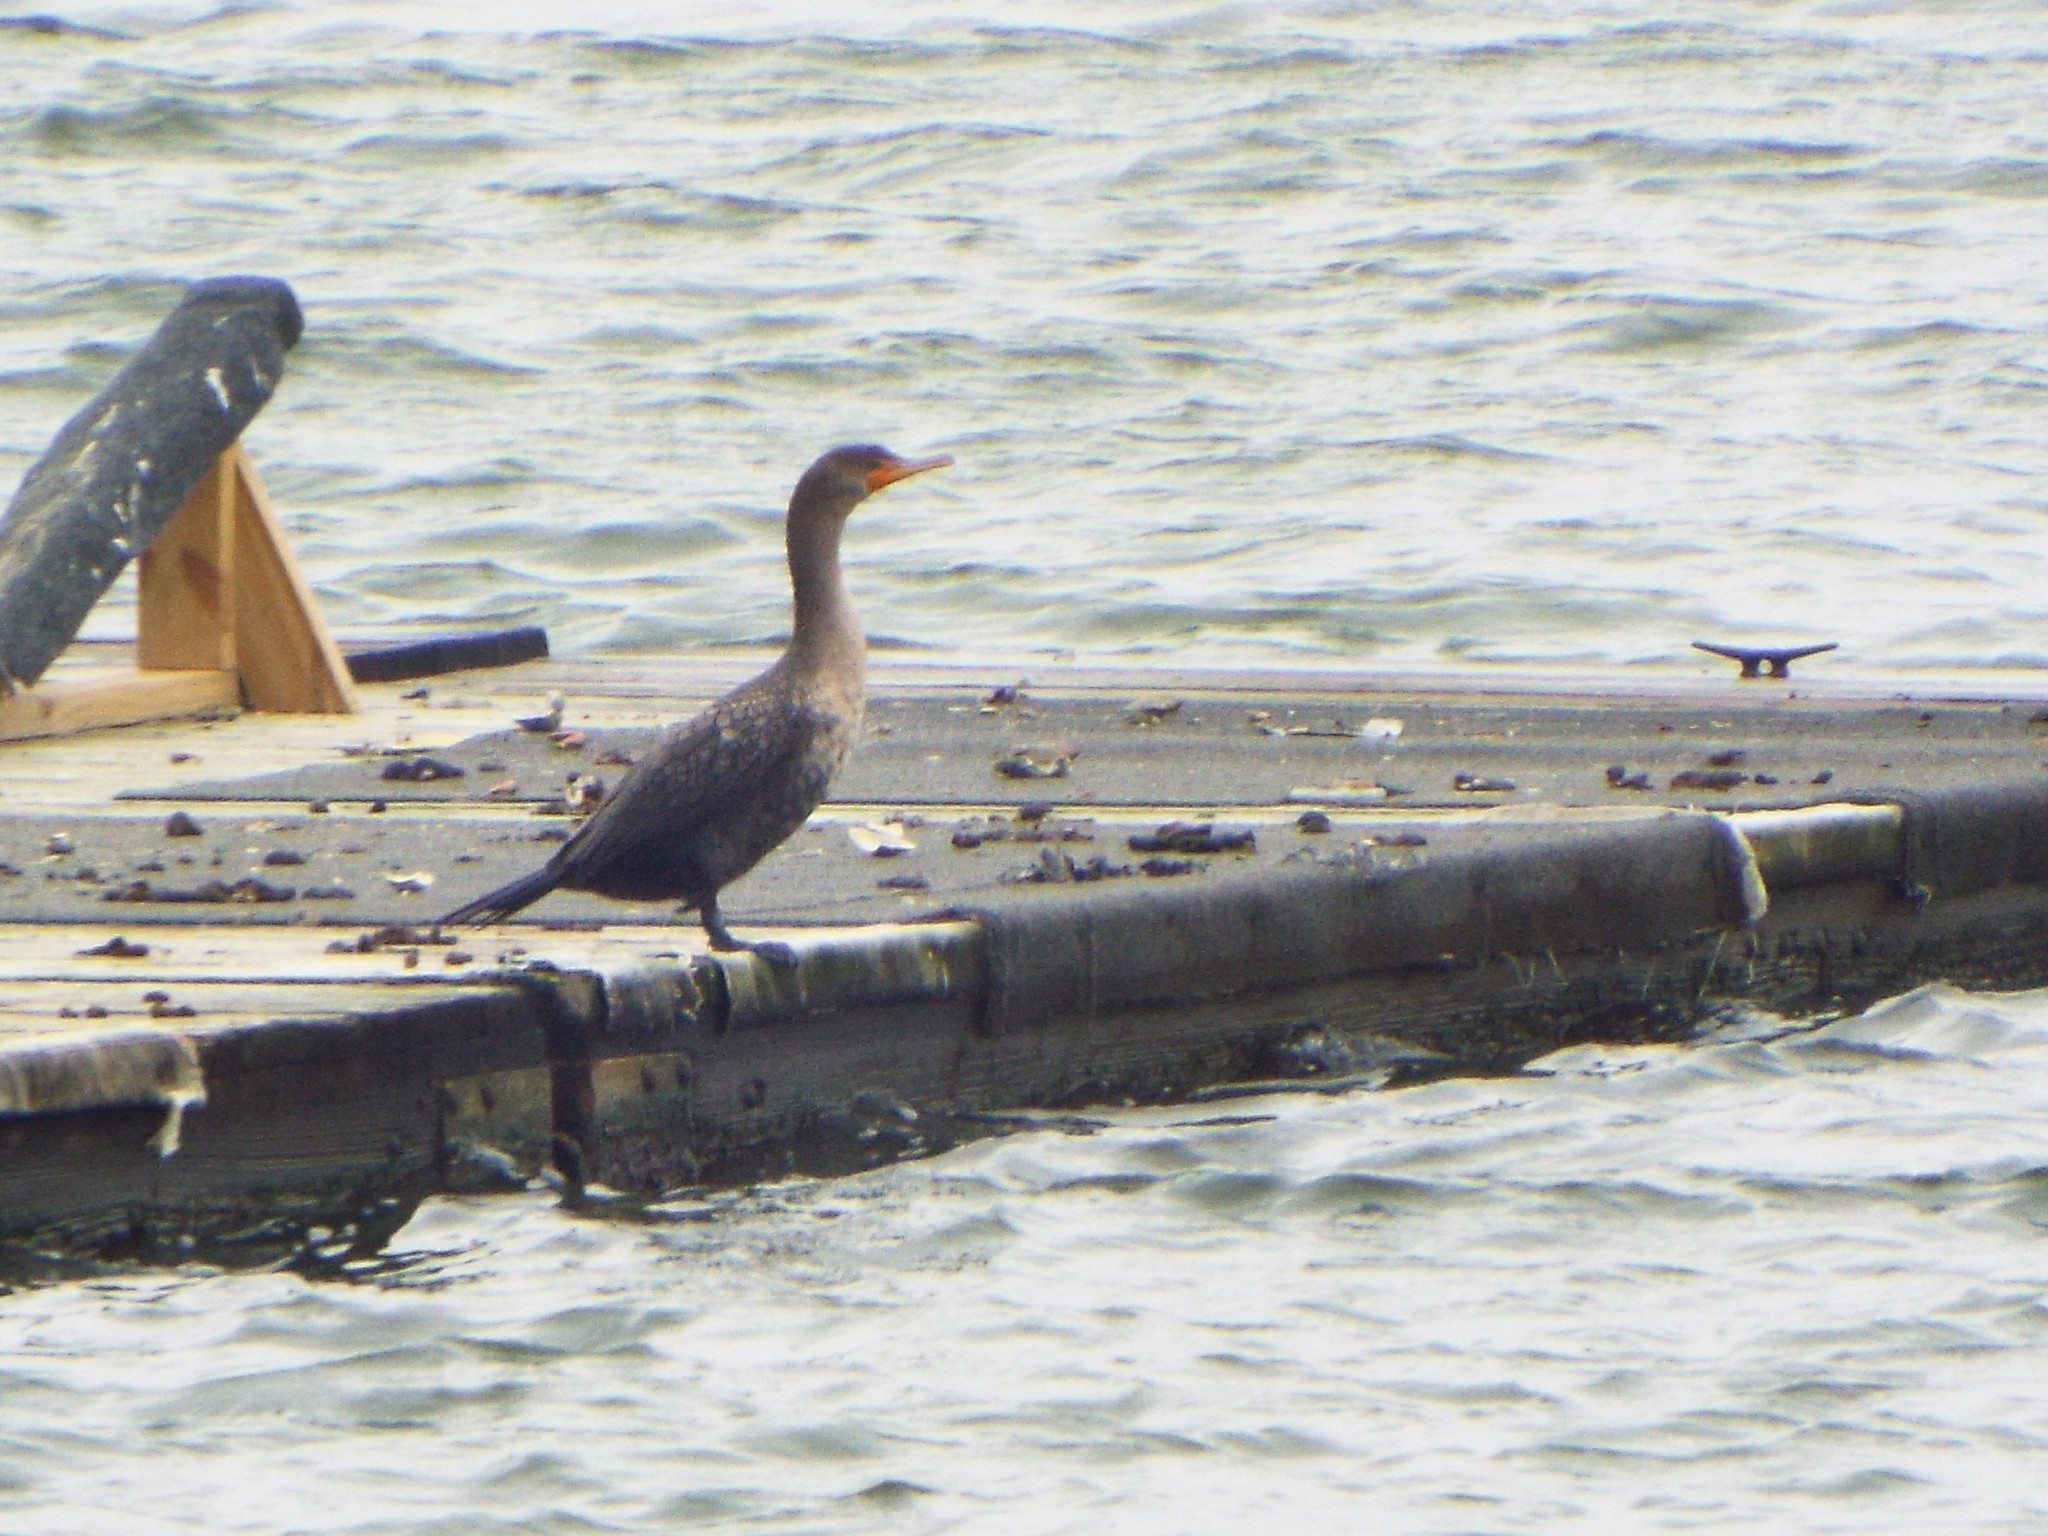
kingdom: Animalia
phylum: Chordata
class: Aves
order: Suliformes
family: Phalacrocoracidae
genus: Phalacrocorax
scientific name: Phalacrocorax auritus
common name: Double-crested cormorant
